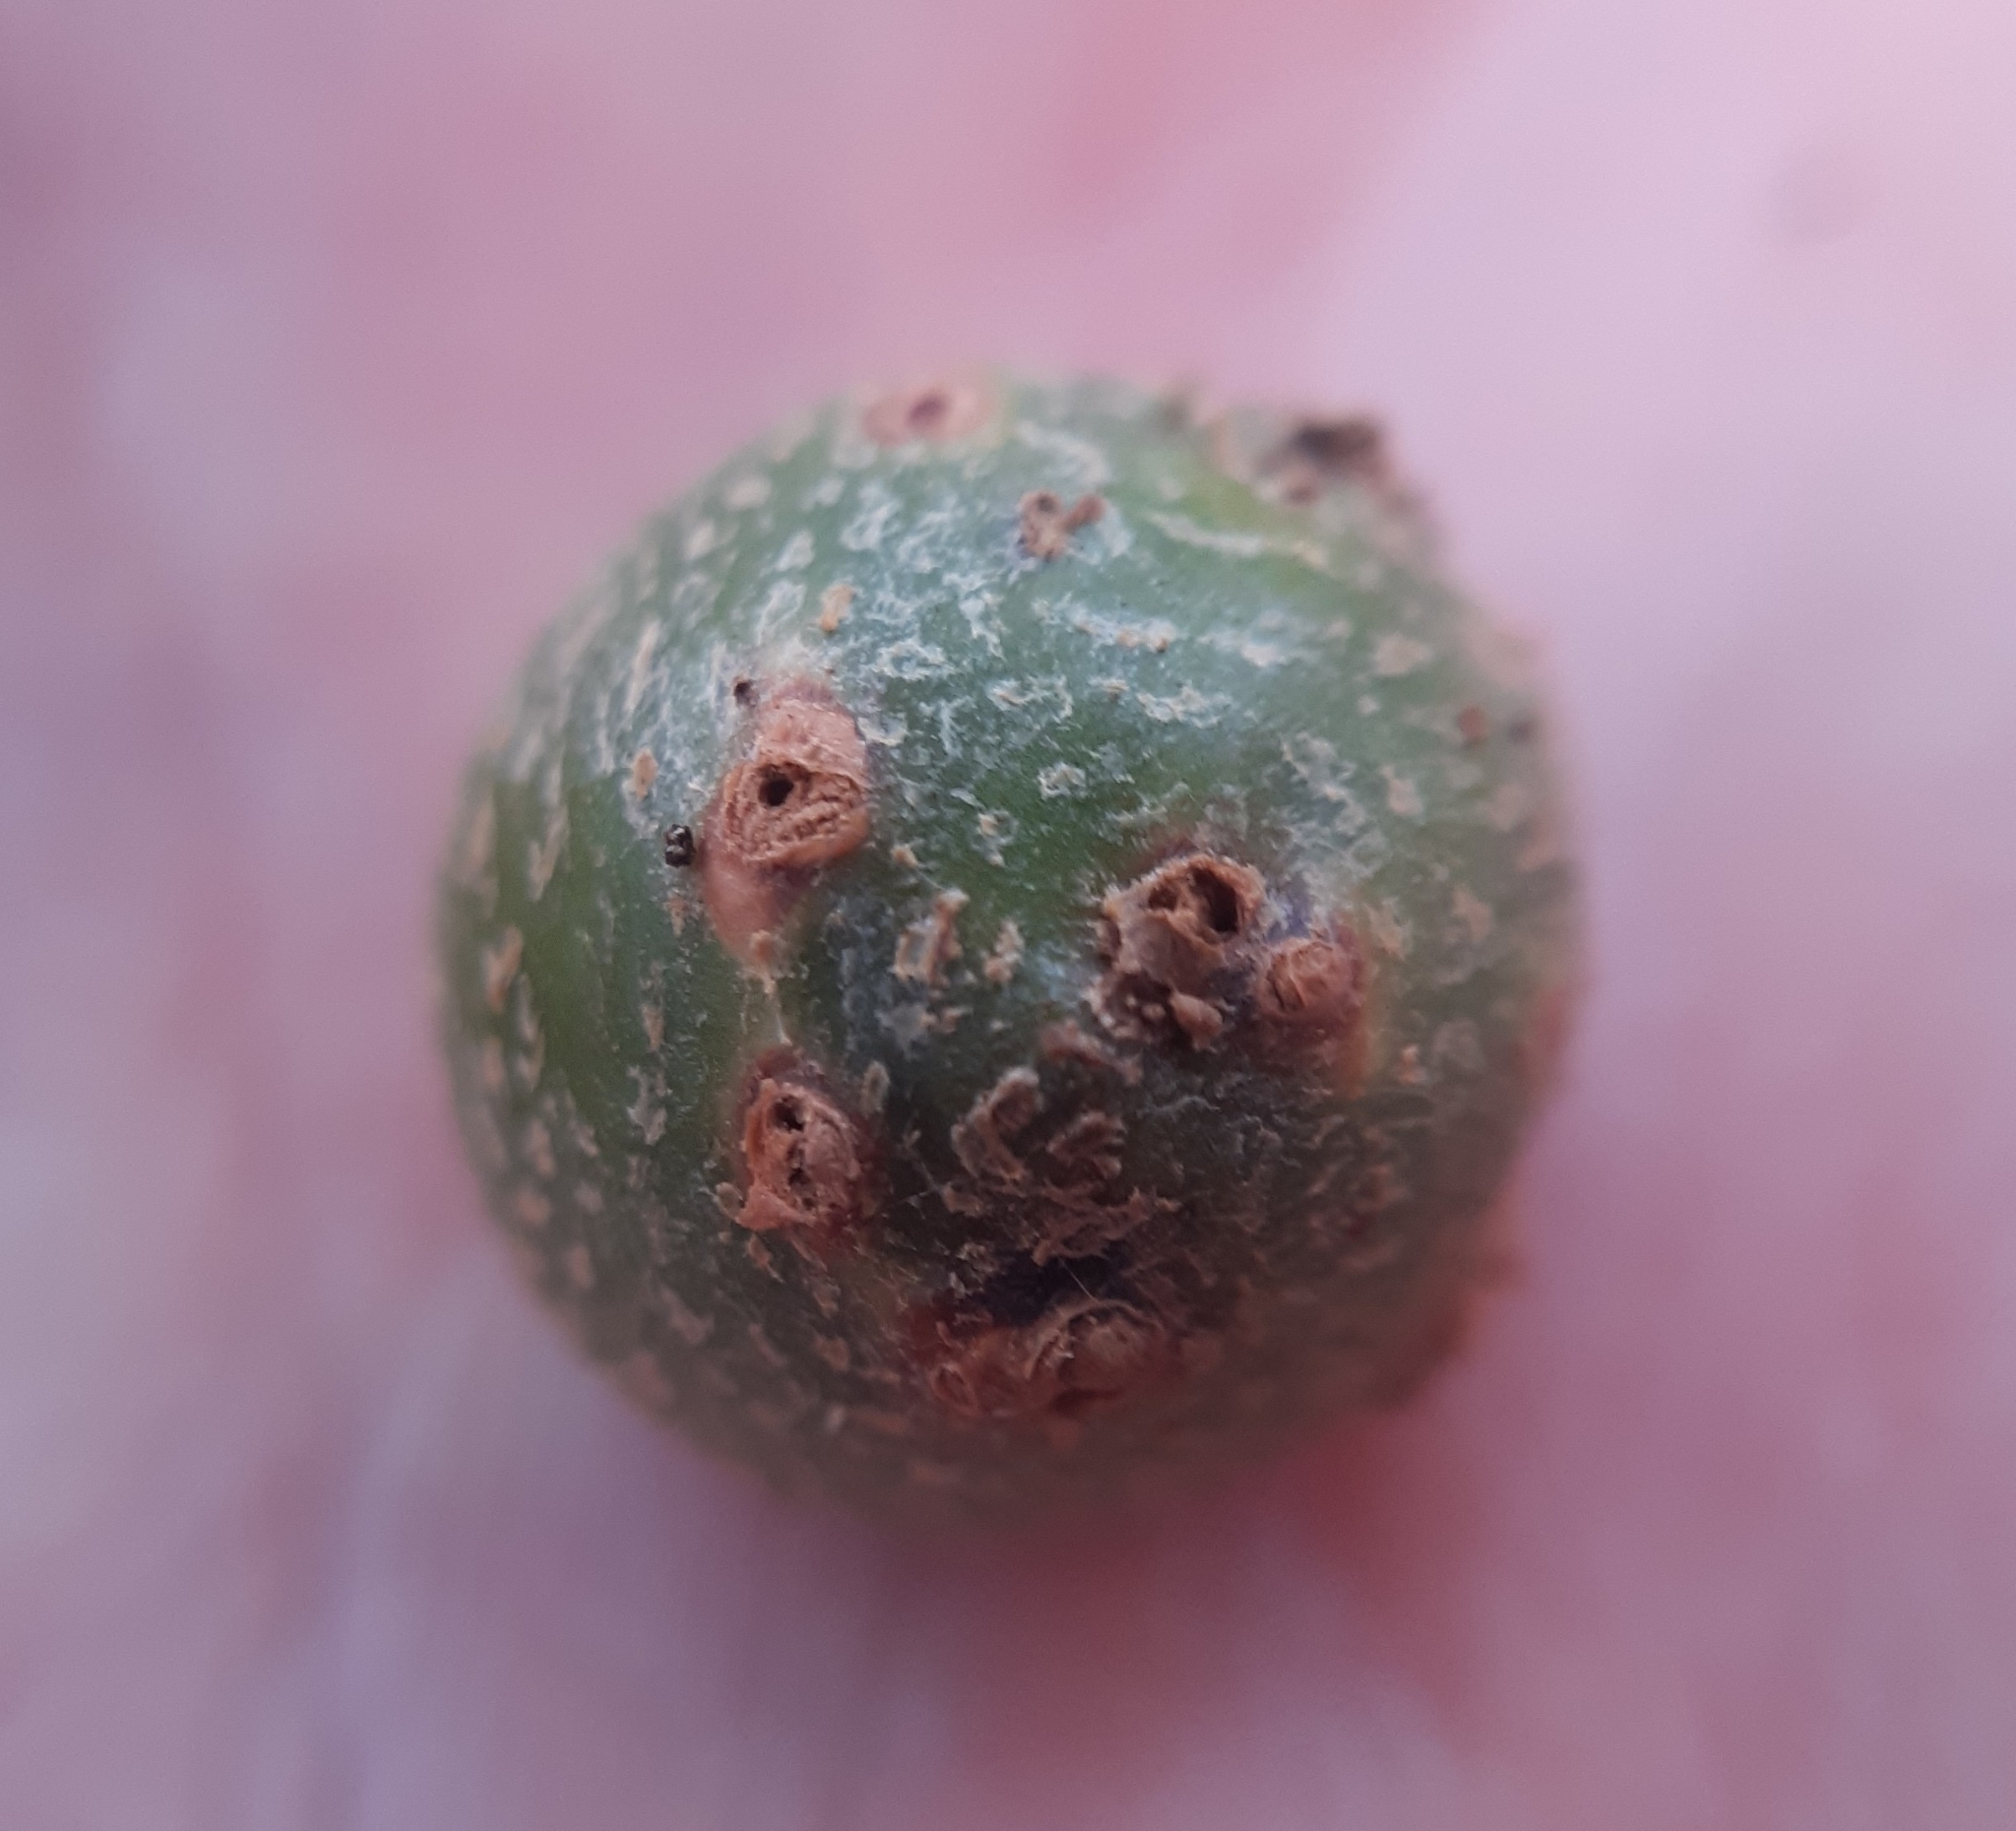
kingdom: Animalia
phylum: Arthropoda
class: Insecta
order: Hymenoptera
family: Cynipidae
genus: Andricus
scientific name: Andricus infectorius
